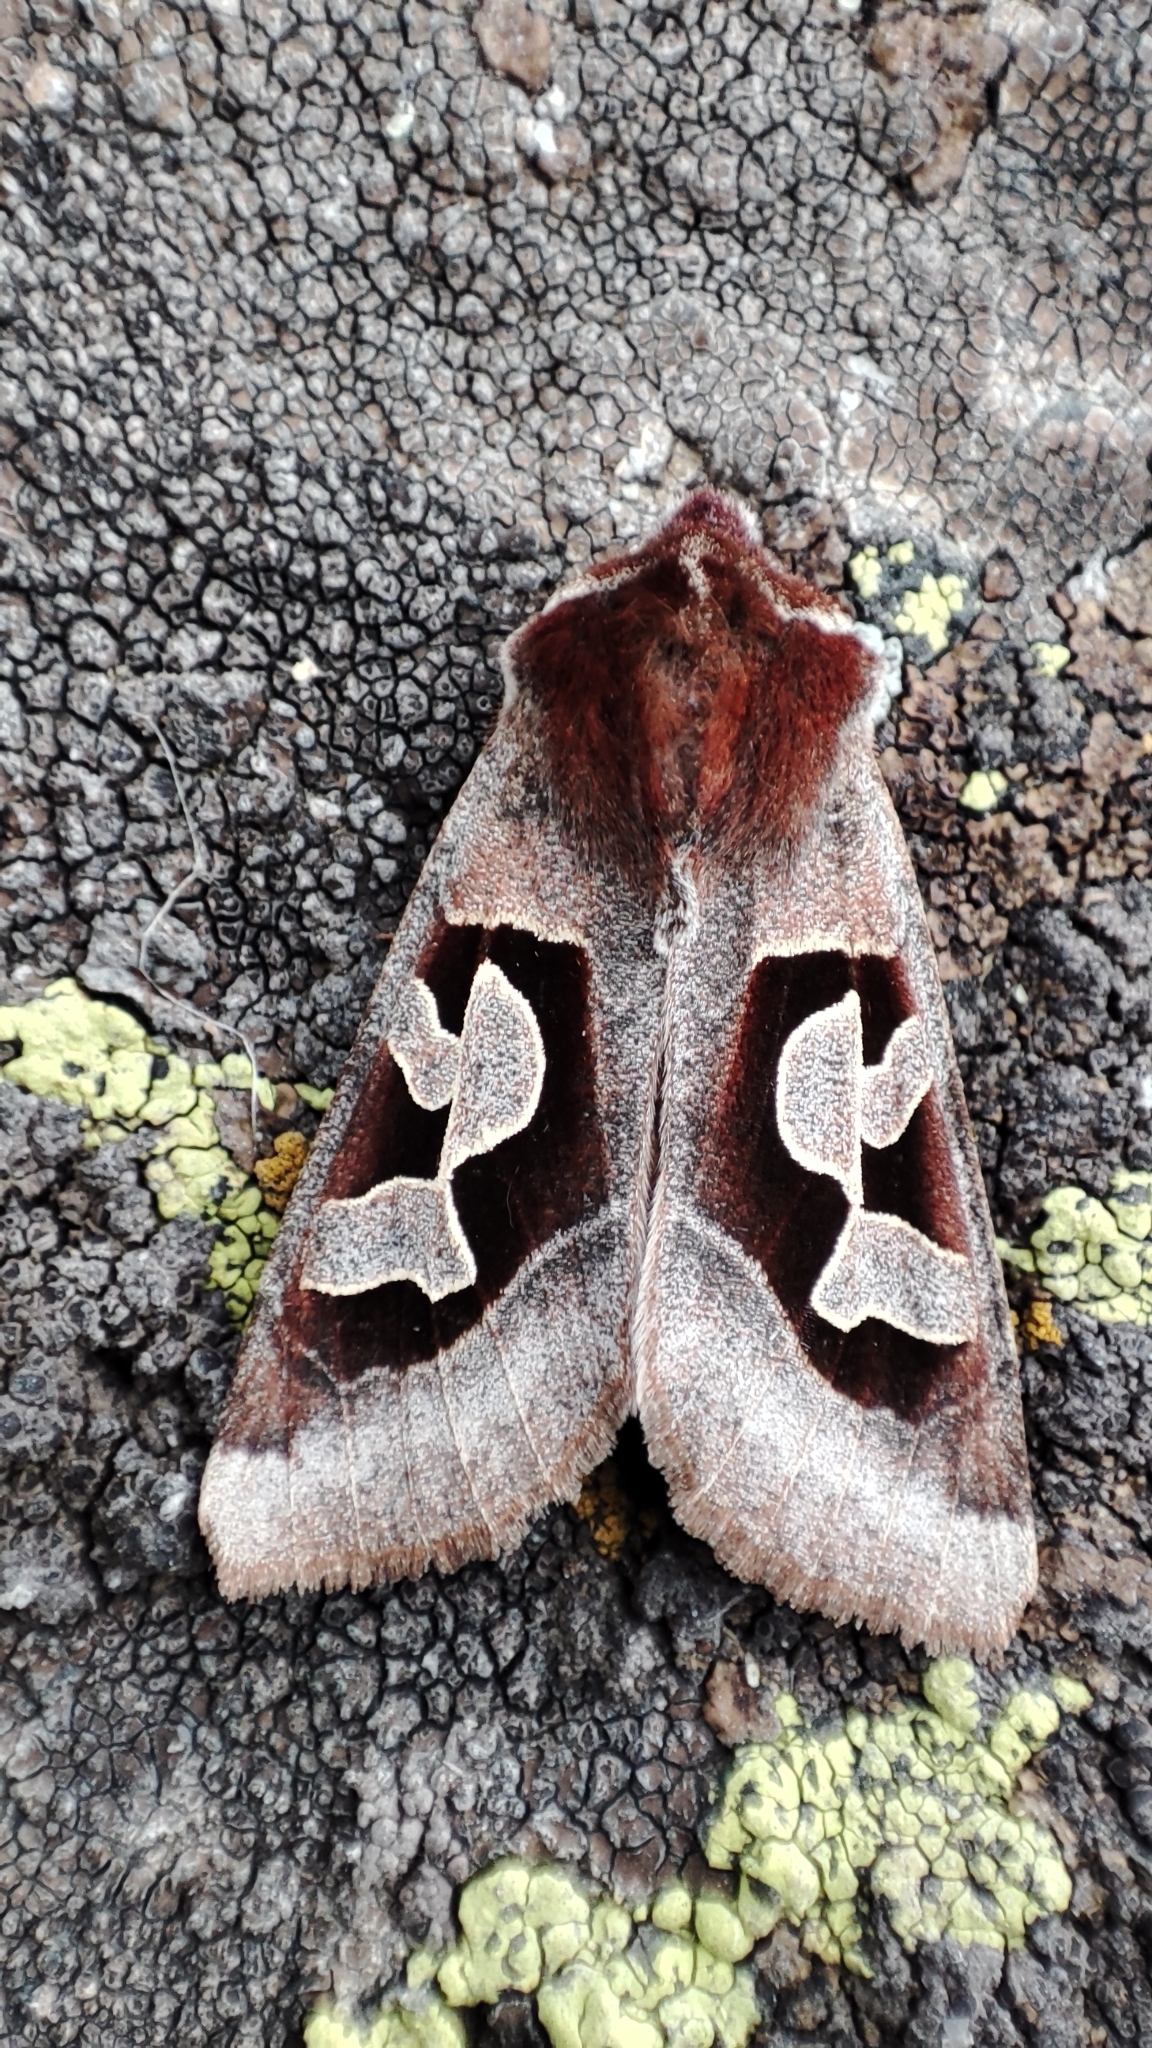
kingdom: Animalia
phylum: Arthropoda
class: Insecta
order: Lepidoptera
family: Noctuidae
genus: Perigrapha
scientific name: Perigrapha circumducta
